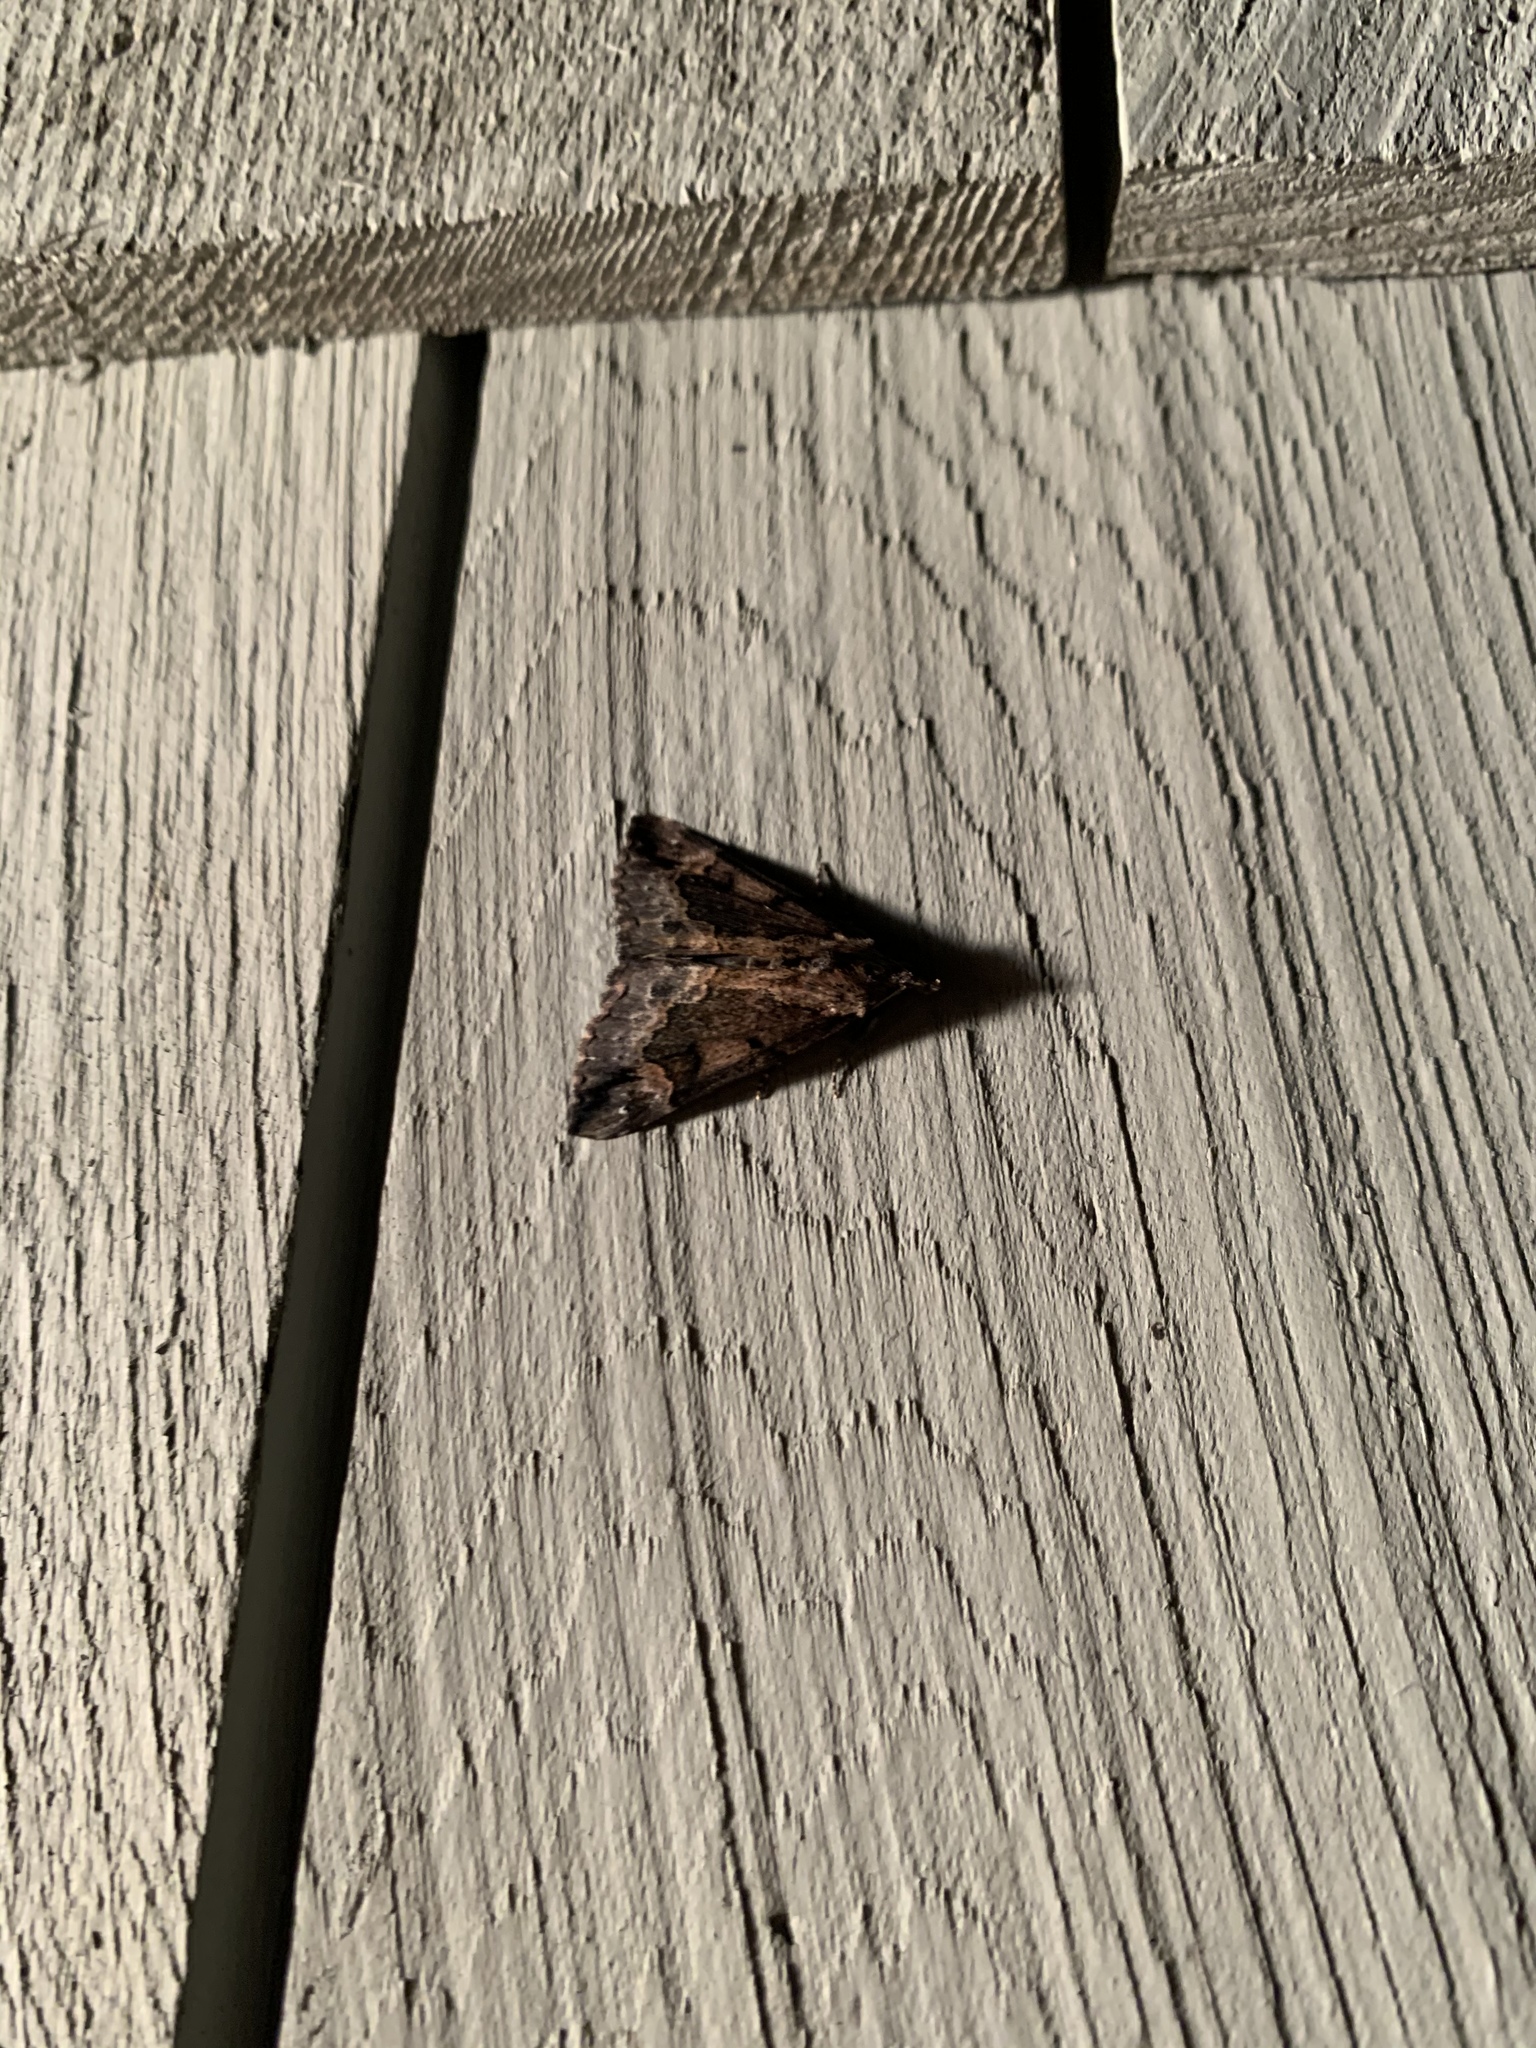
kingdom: Animalia
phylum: Arthropoda
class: Insecta
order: Lepidoptera
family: Erebidae
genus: Hypena
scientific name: Hypena scabra
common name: Green cloverworm
